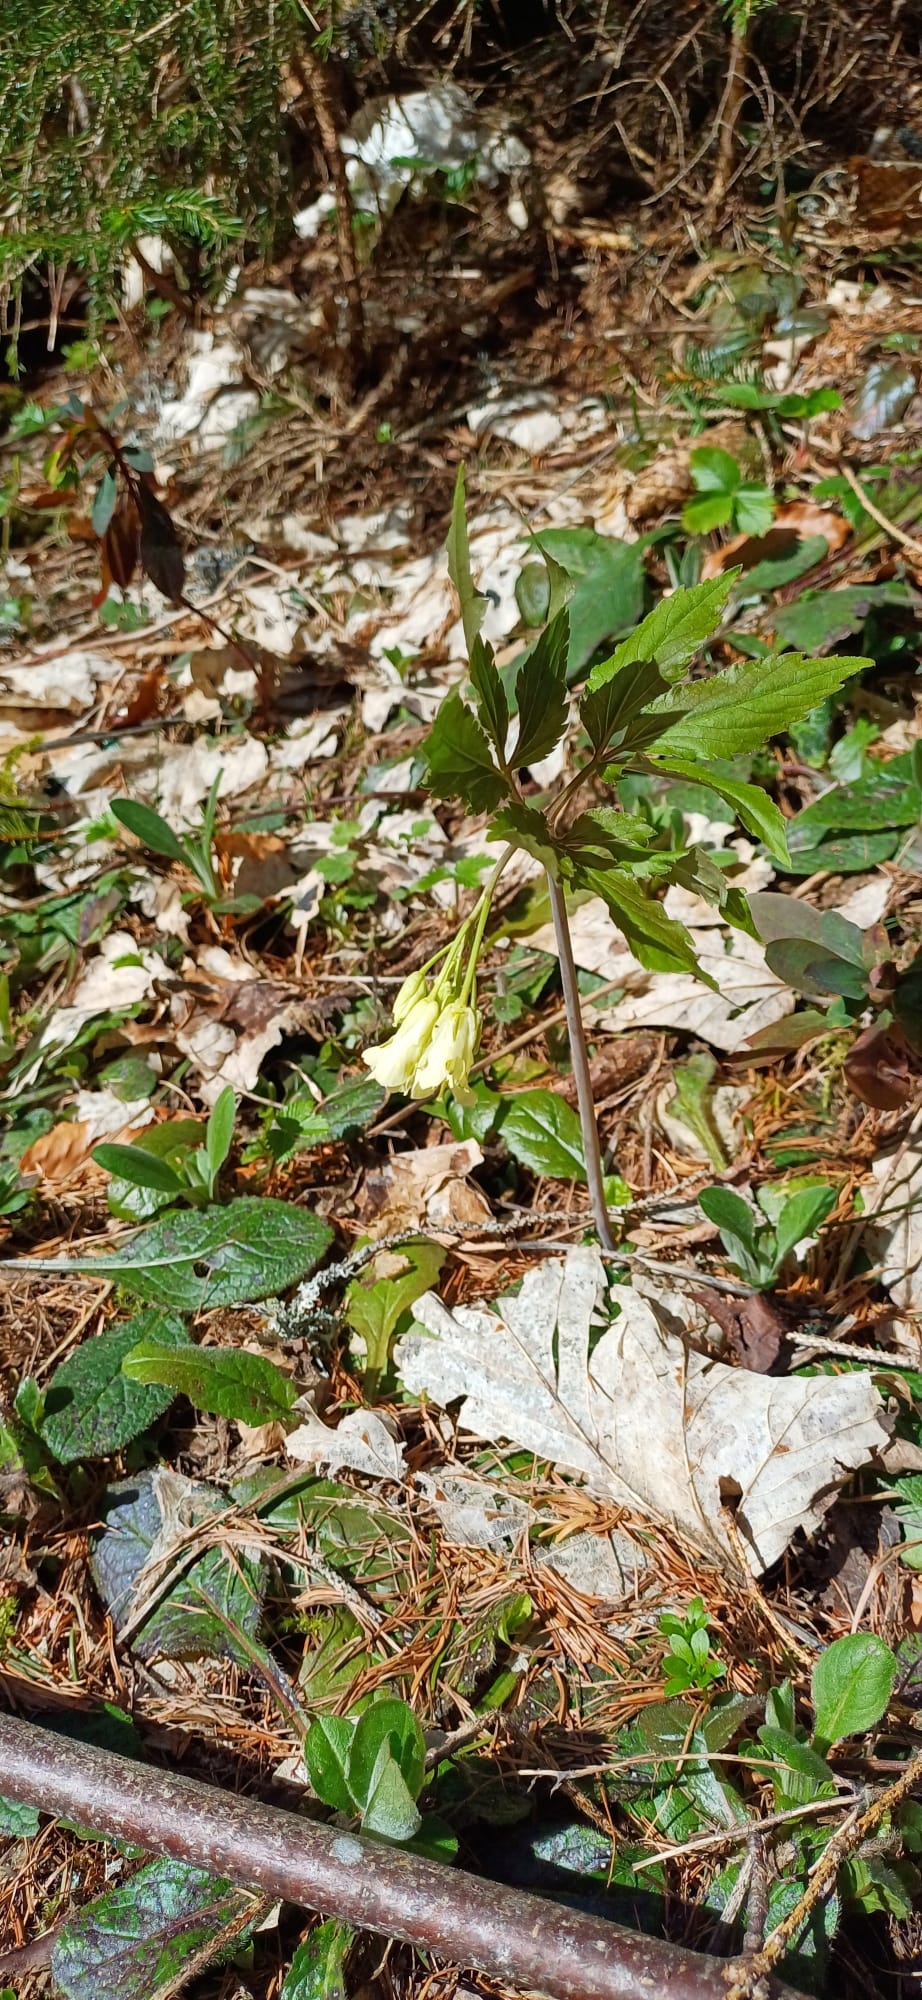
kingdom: Plantae
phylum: Tracheophyta
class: Magnoliopsida
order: Brassicales
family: Brassicaceae
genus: Cardamine
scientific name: Cardamine enneaphyllos
